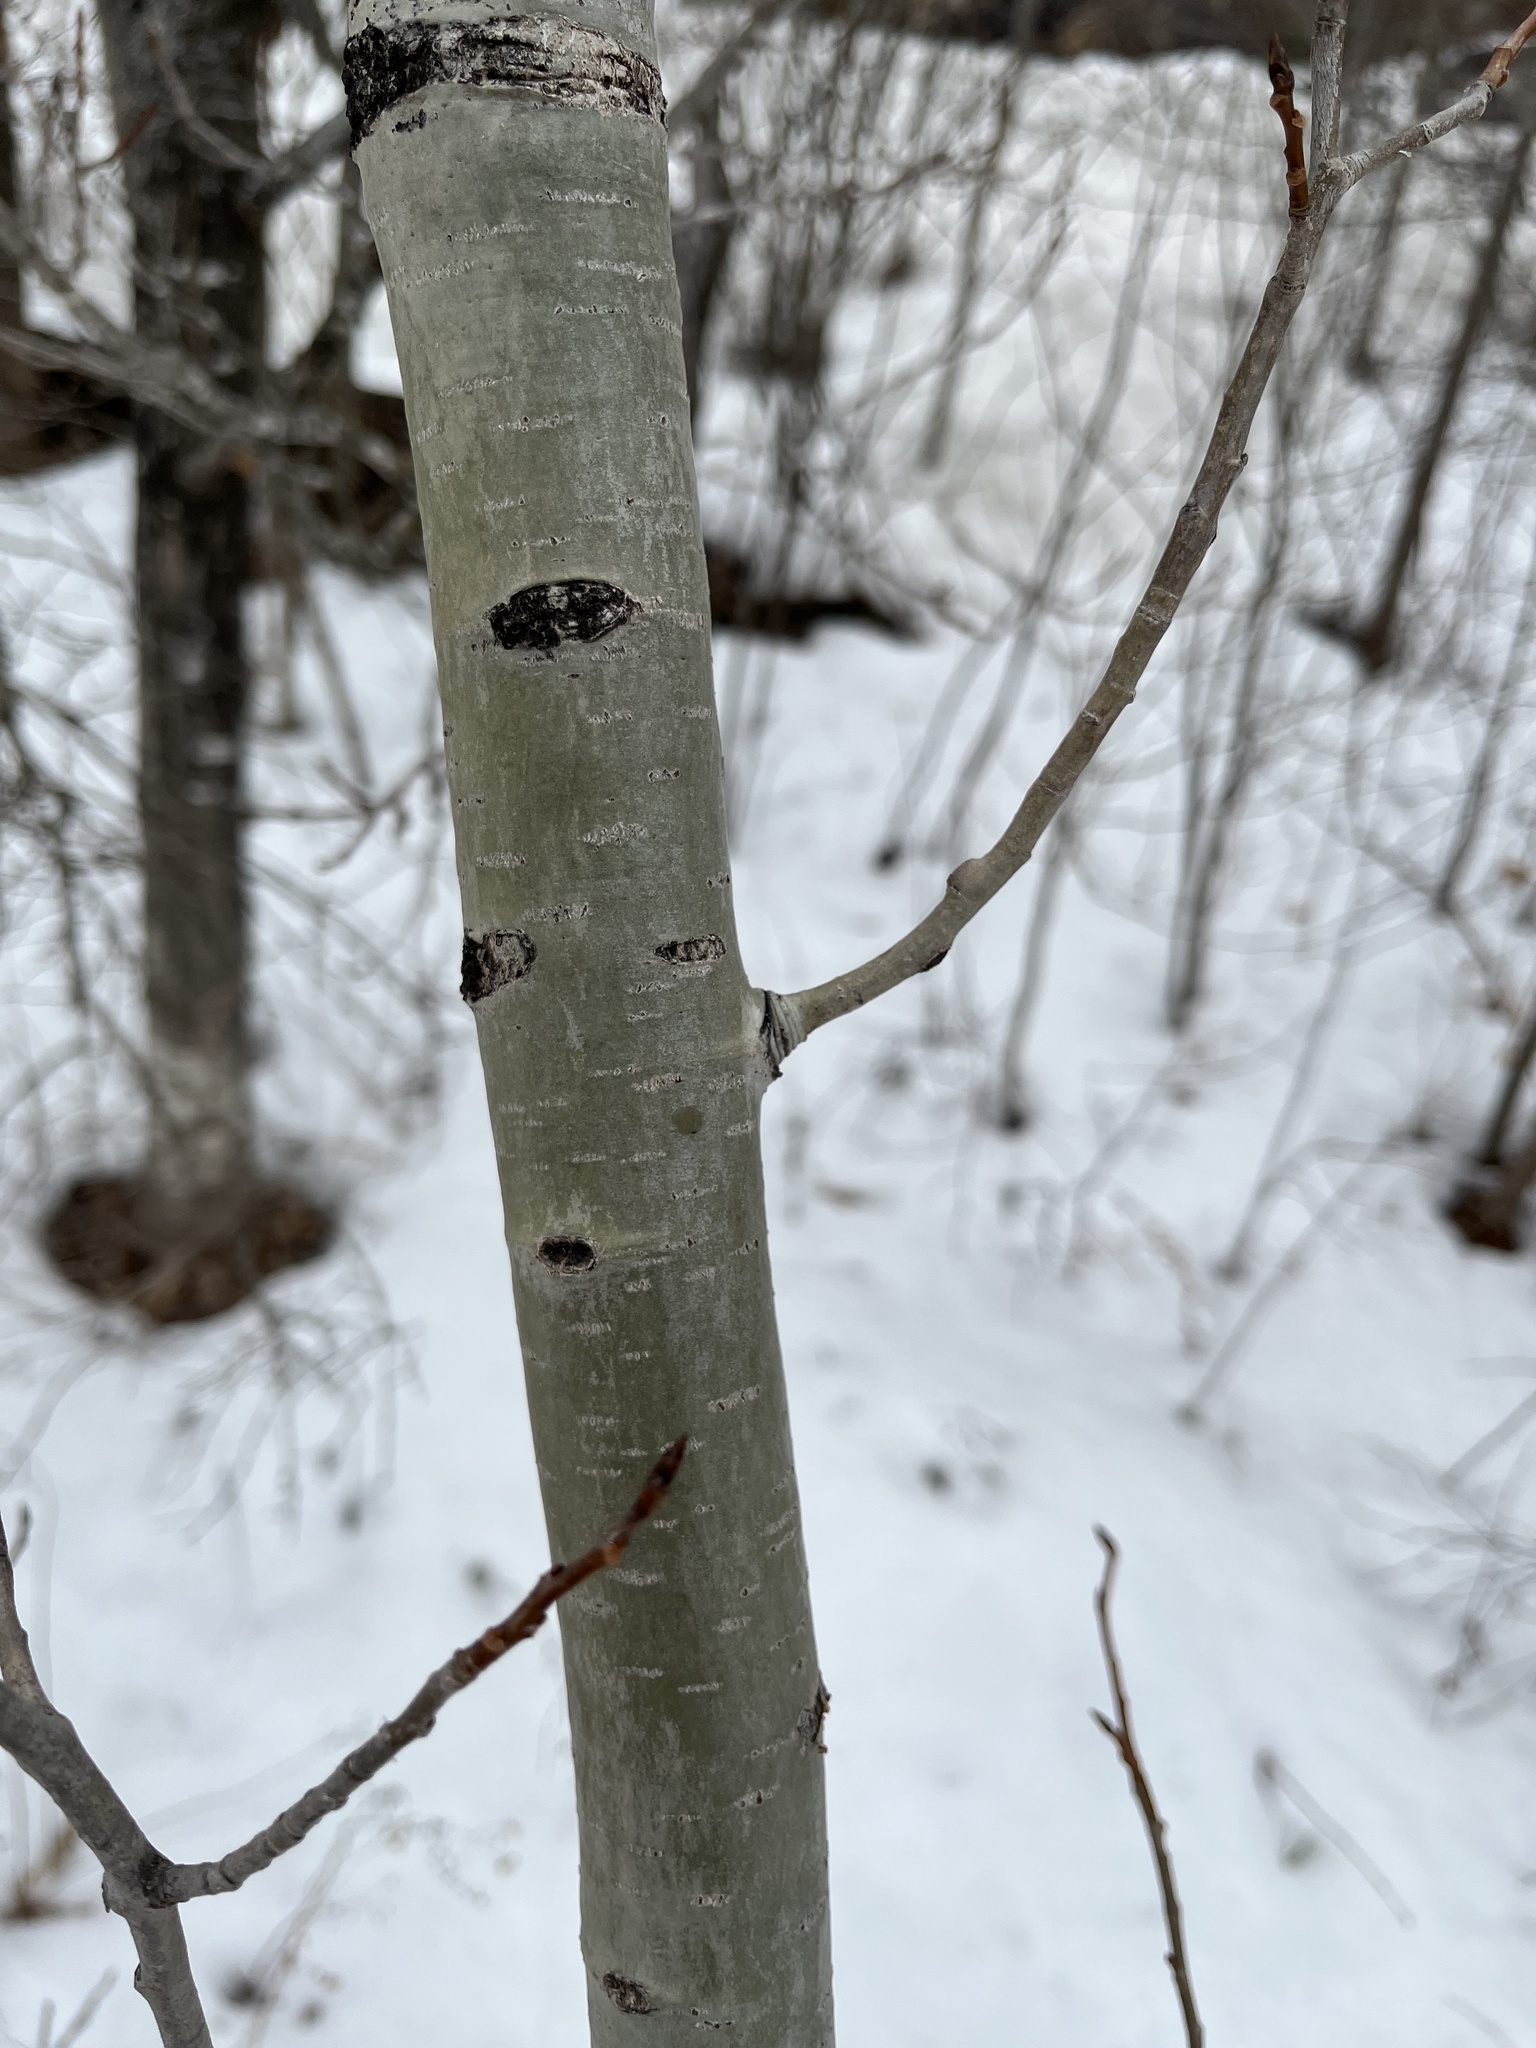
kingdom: Plantae
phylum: Tracheophyta
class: Magnoliopsida
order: Malpighiales
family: Salicaceae
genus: Populus
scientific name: Populus tremuloides
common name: Quaking aspen
